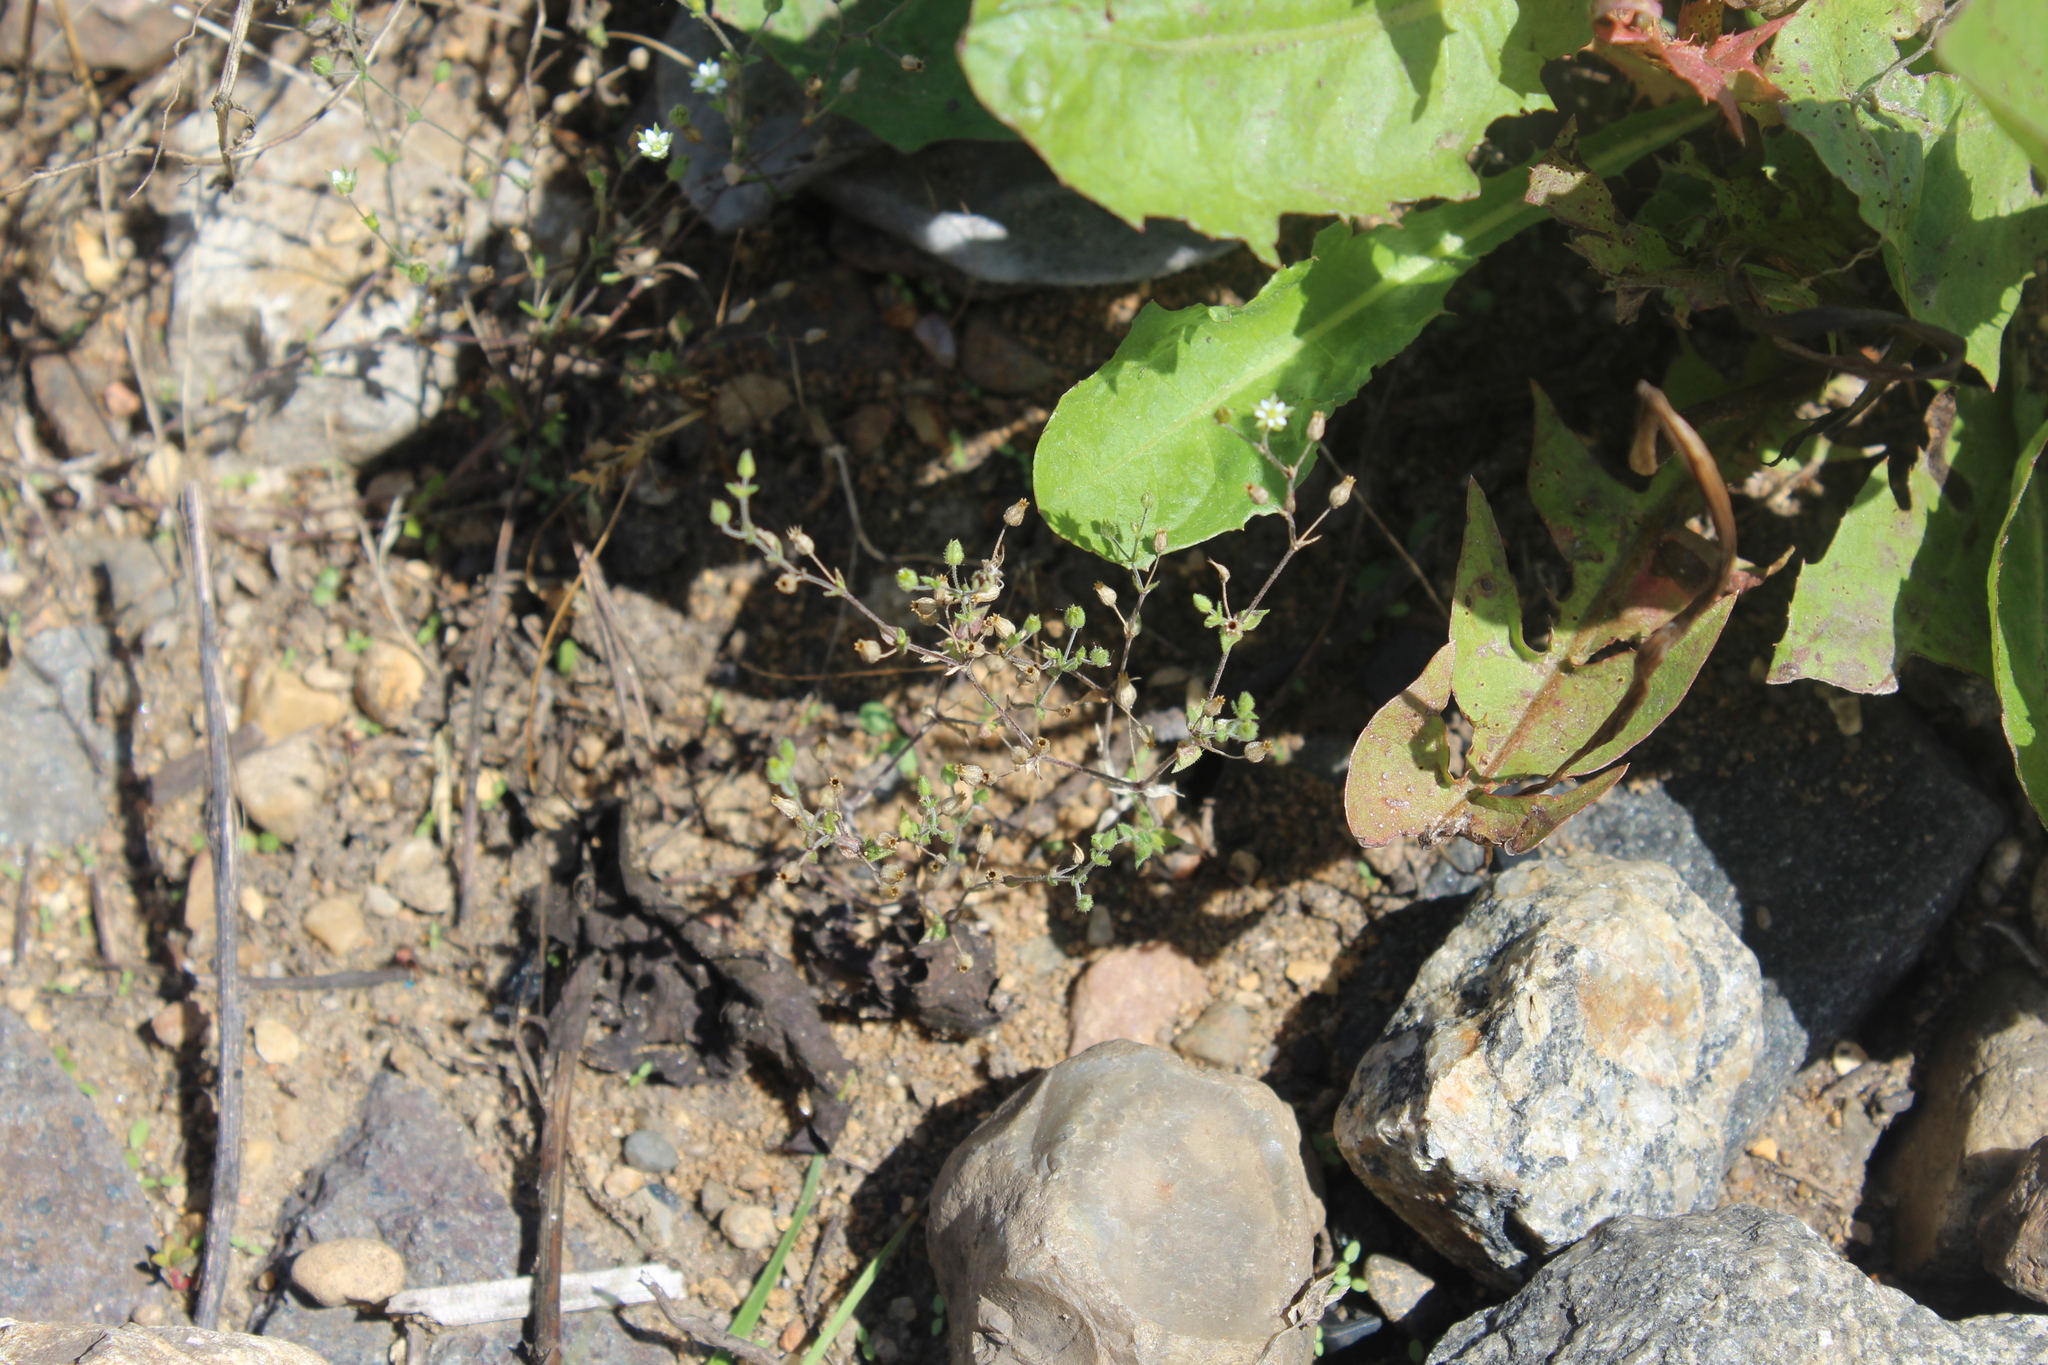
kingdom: Plantae
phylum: Tracheophyta
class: Magnoliopsida
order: Caryophyllales
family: Caryophyllaceae
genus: Arenaria
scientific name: Arenaria serpyllifolia
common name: Thyme-leaved sandwort
